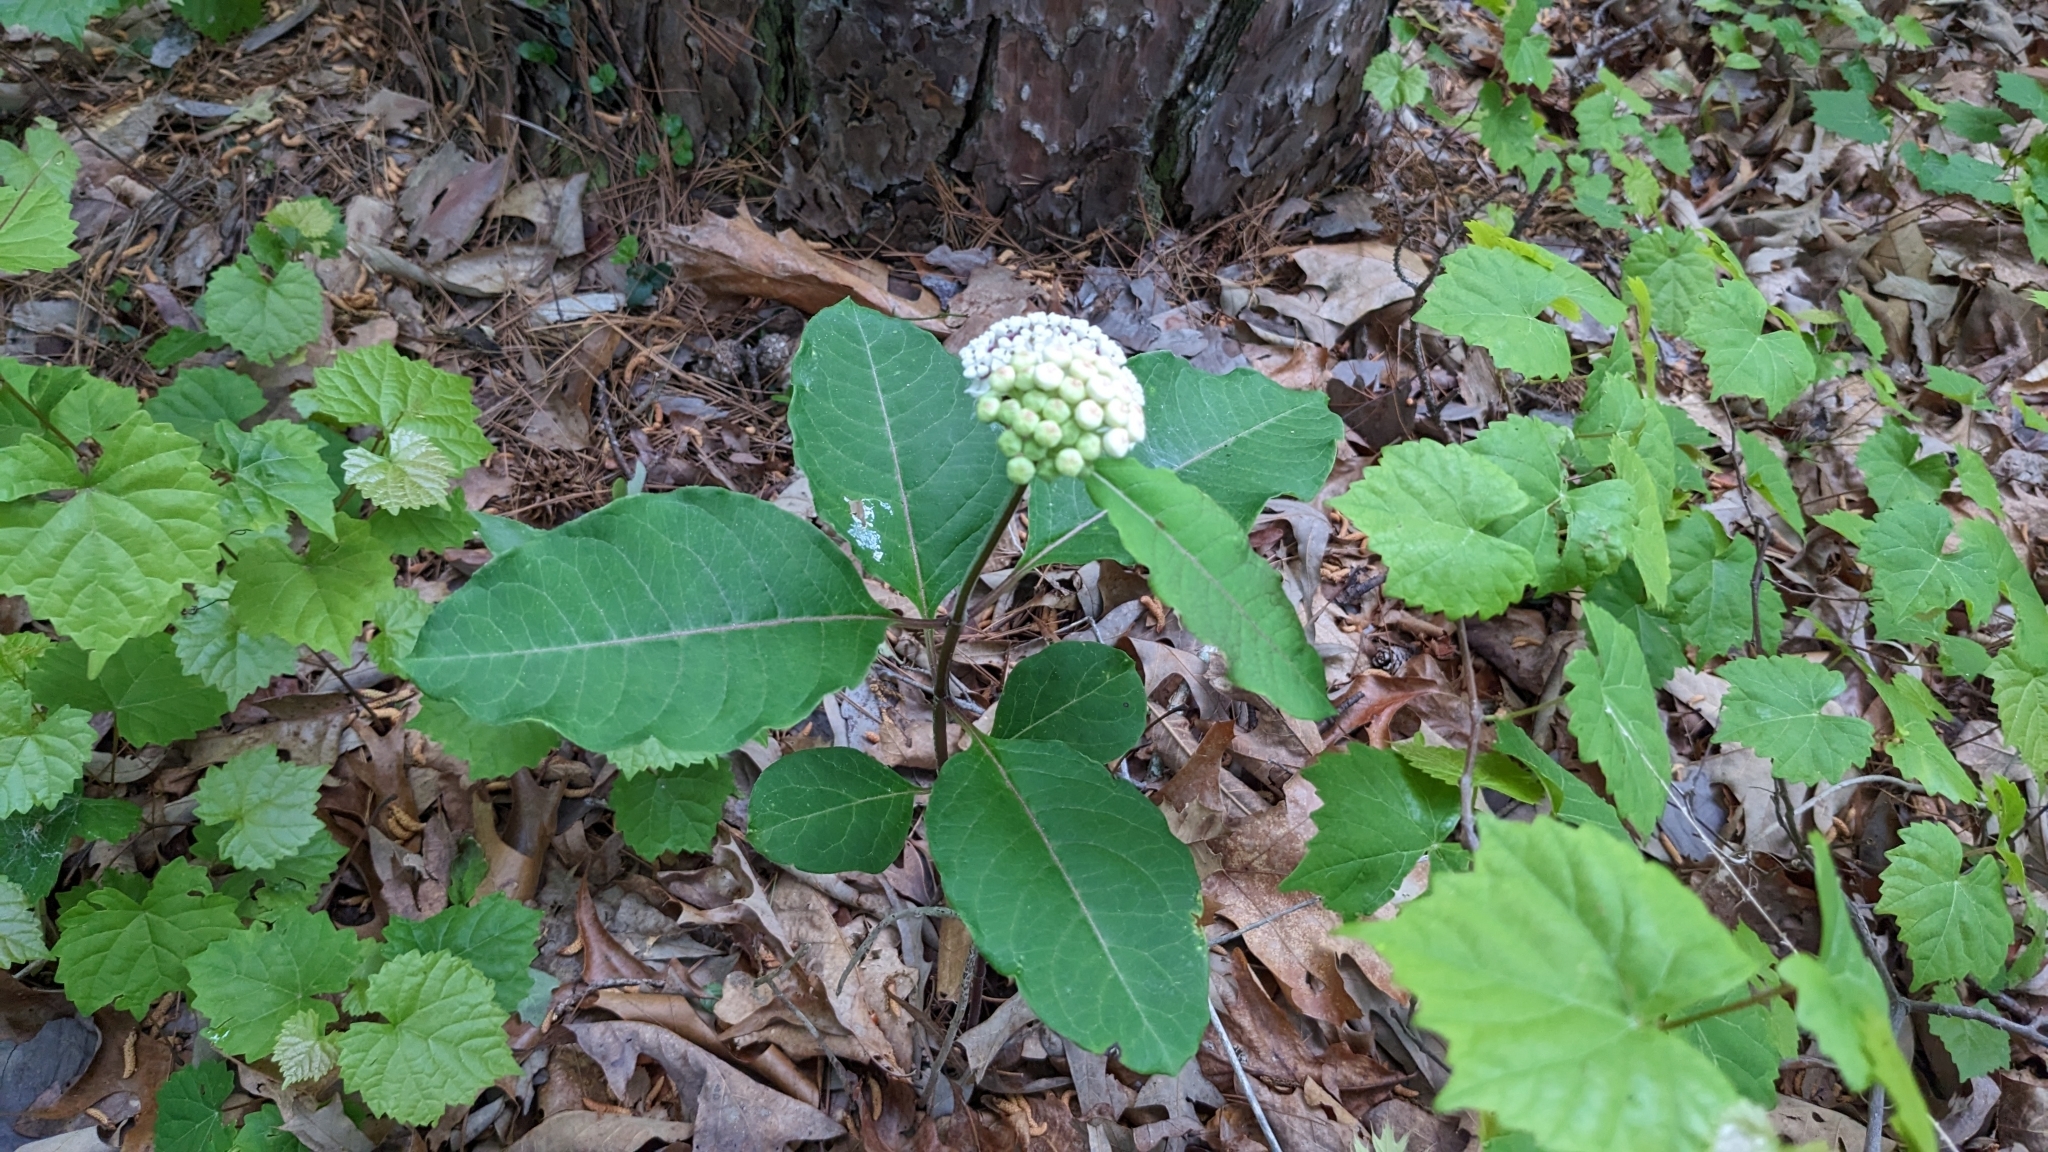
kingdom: Plantae
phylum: Tracheophyta
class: Magnoliopsida
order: Gentianales
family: Apocynaceae
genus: Asclepias
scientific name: Asclepias variegata
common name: Variegated milkweed
